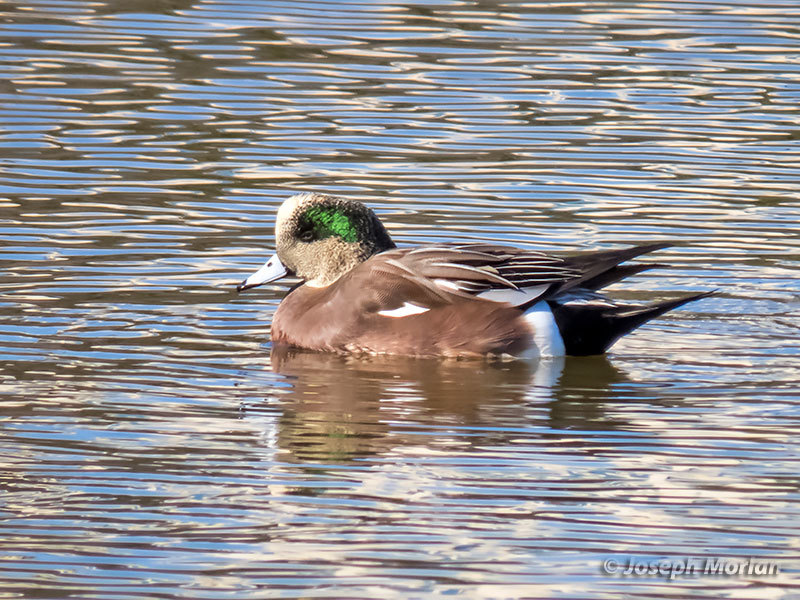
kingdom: Animalia
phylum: Chordata
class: Aves
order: Anseriformes
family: Anatidae
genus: Mareca
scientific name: Mareca americana
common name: American wigeon
